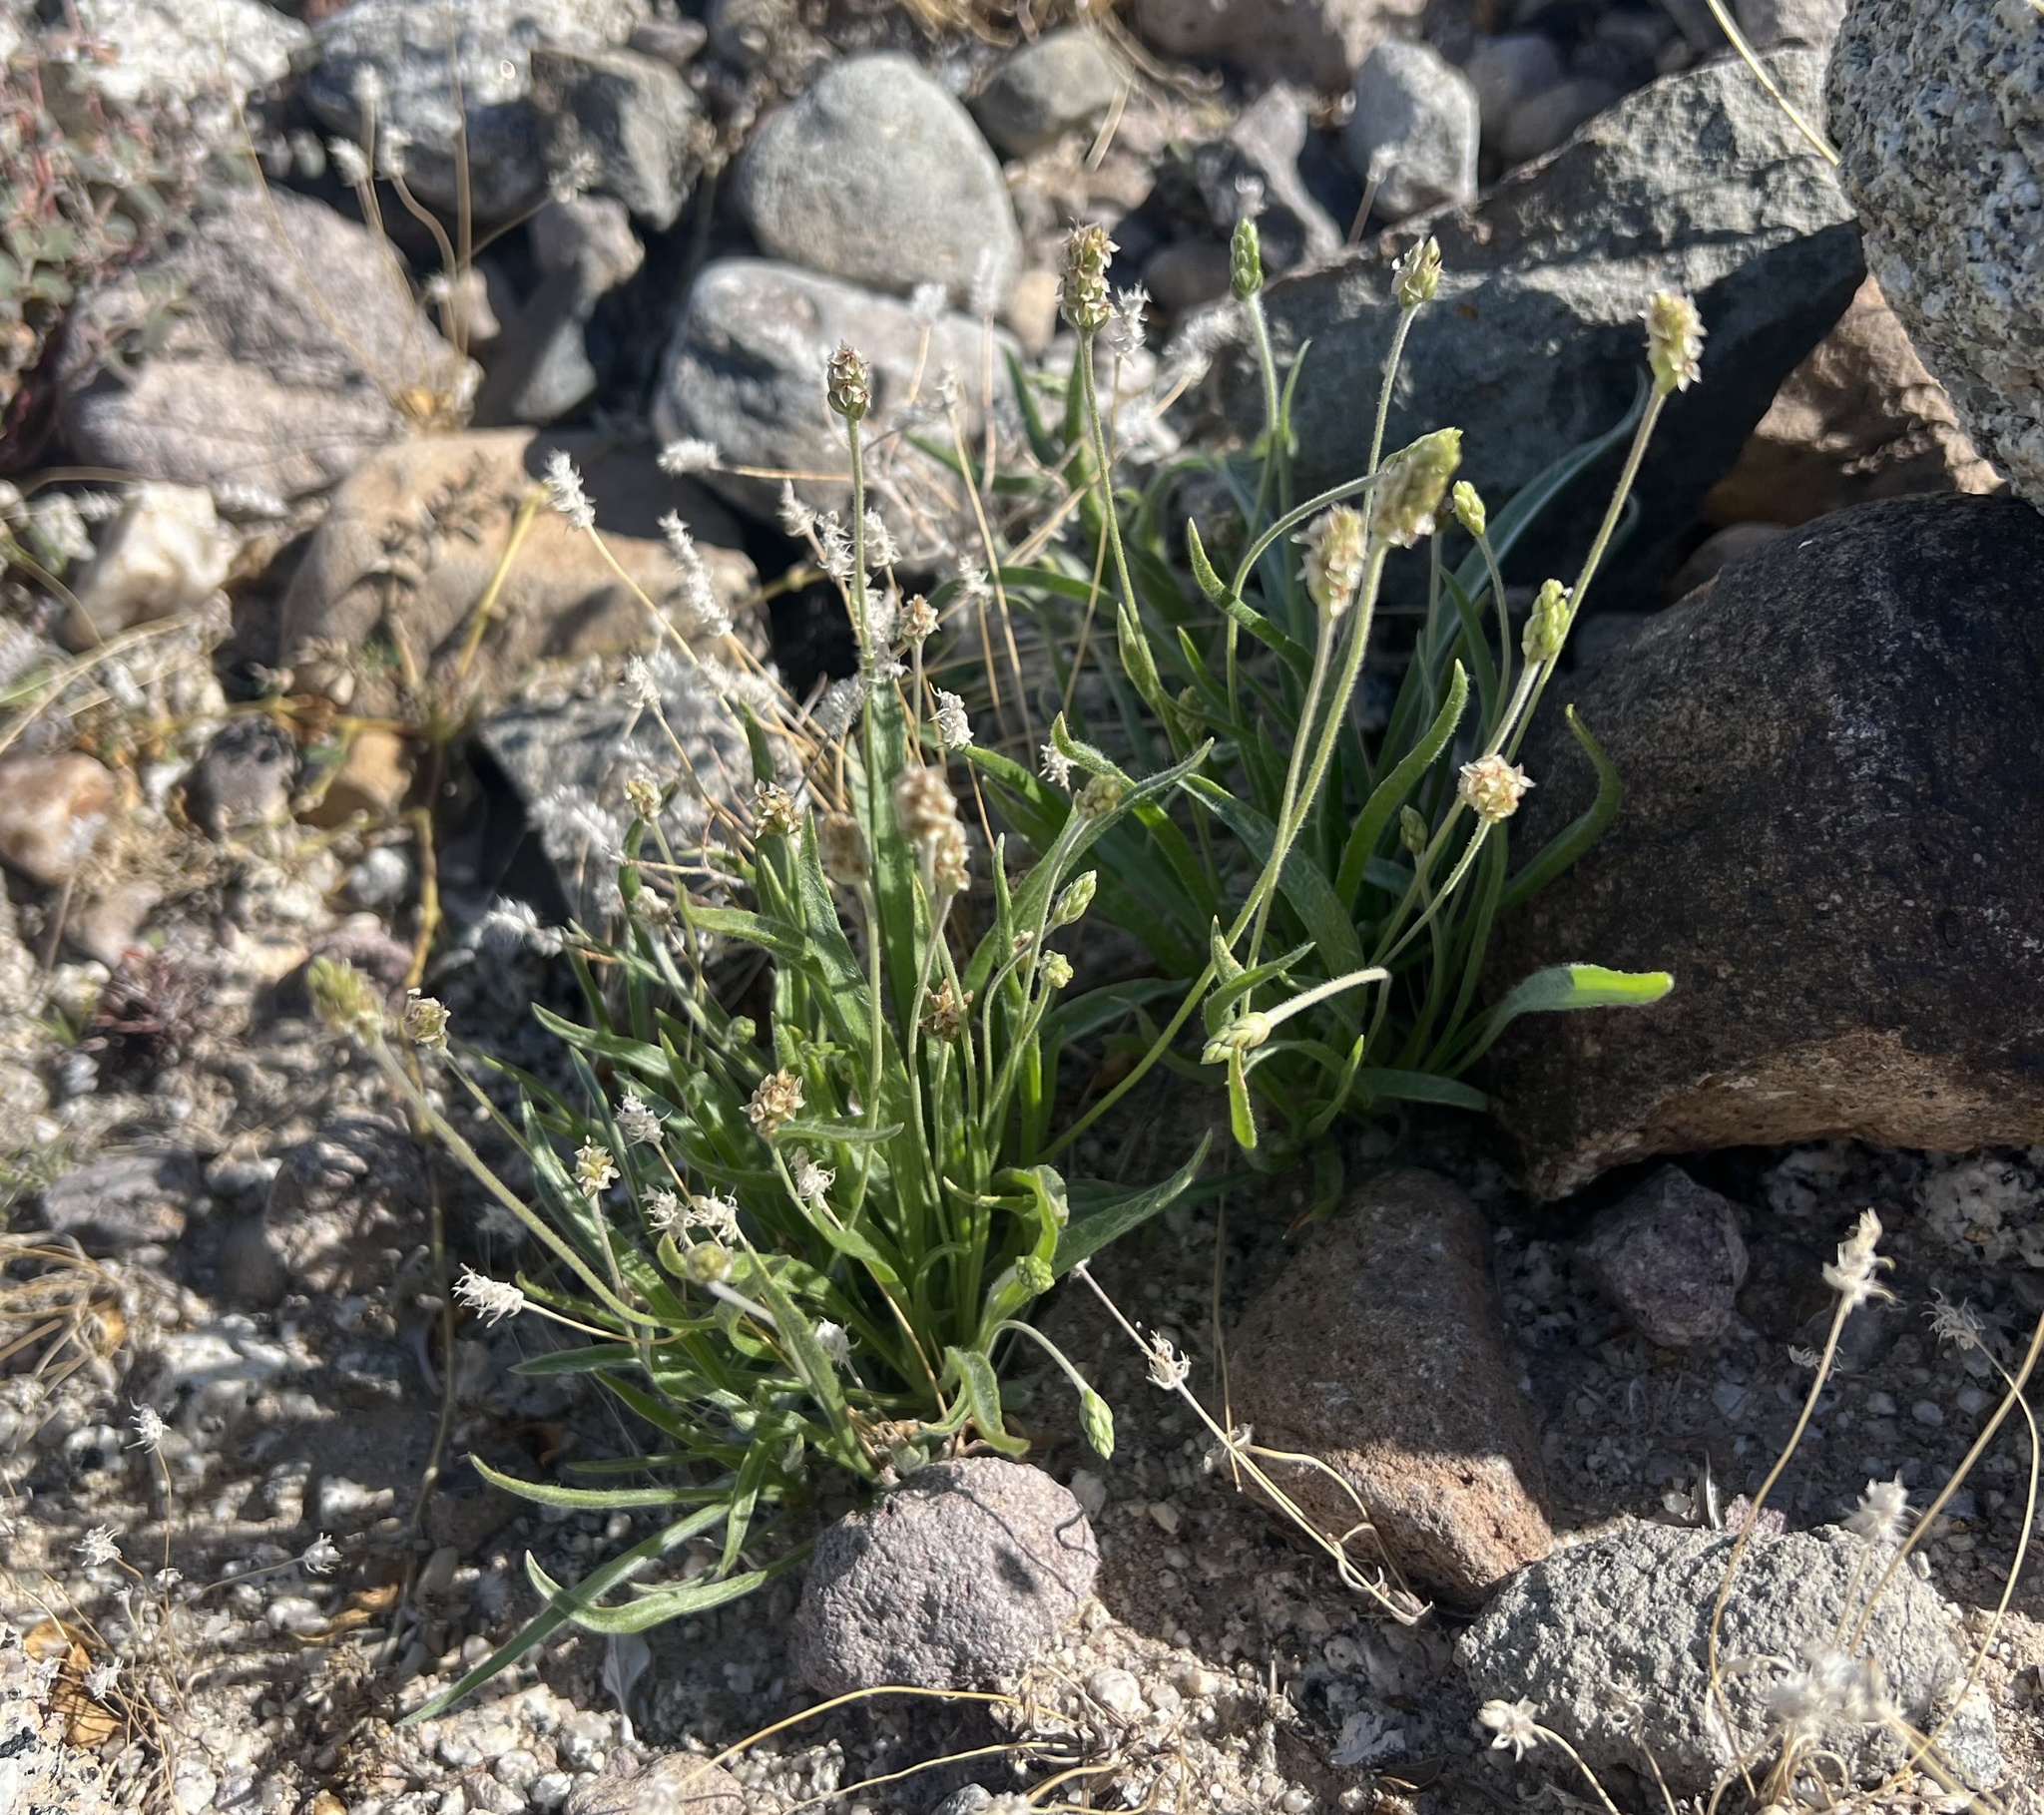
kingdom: Plantae
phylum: Tracheophyta
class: Magnoliopsida
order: Lamiales
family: Plantaginaceae
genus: Plantago
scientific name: Plantago ovata
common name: Blond plantain
